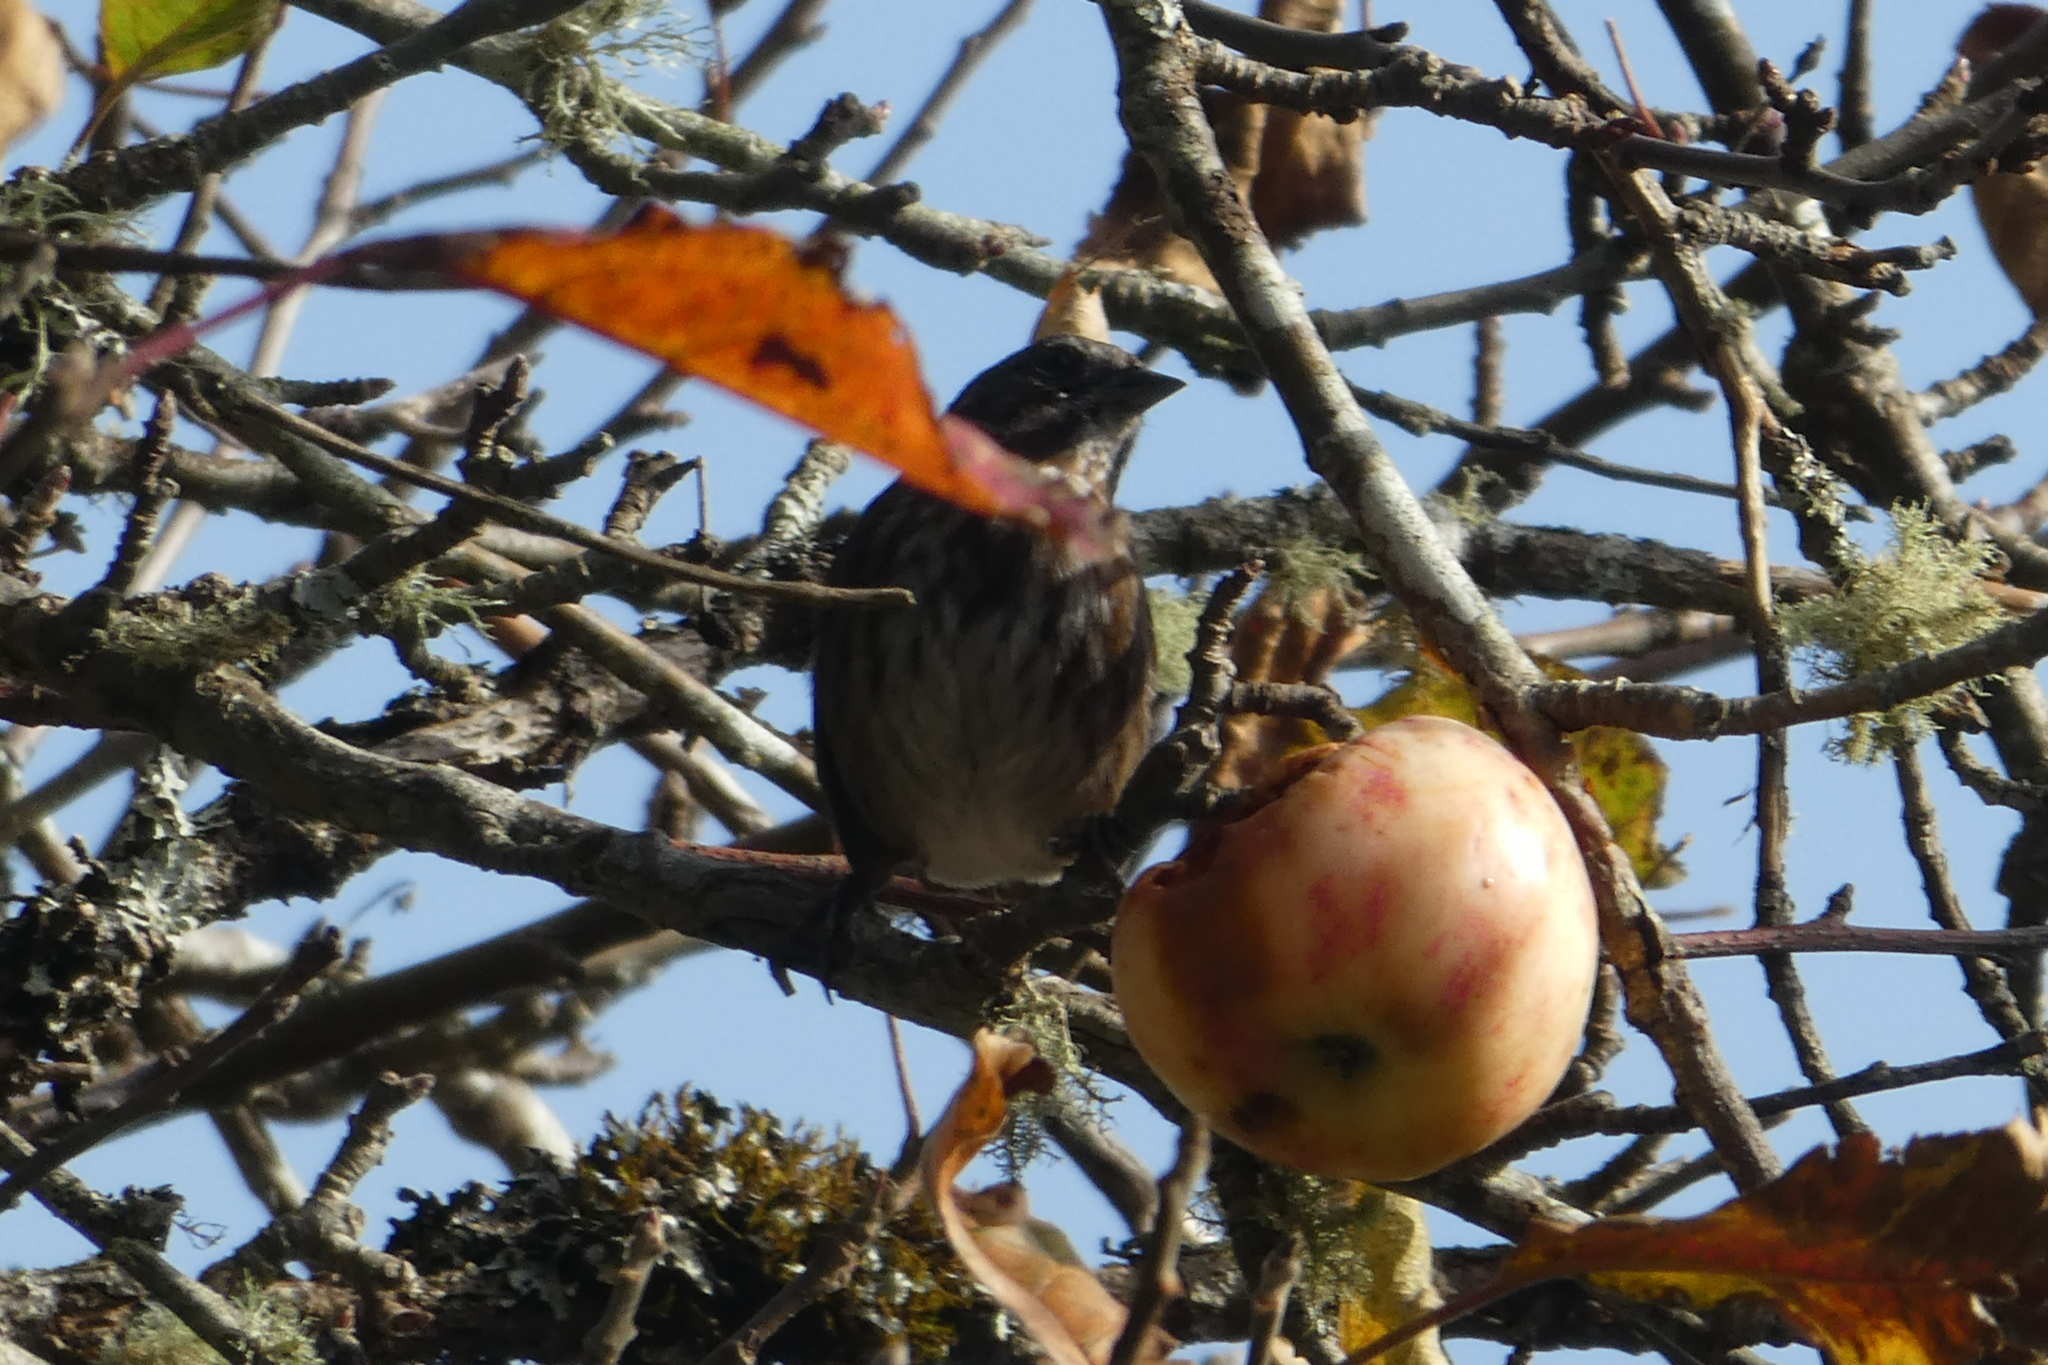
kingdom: Animalia
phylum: Chordata
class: Aves
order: Passeriformes
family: Passerellidae
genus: Melospiza
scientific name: Melospiza melodia
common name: Song sparrow
